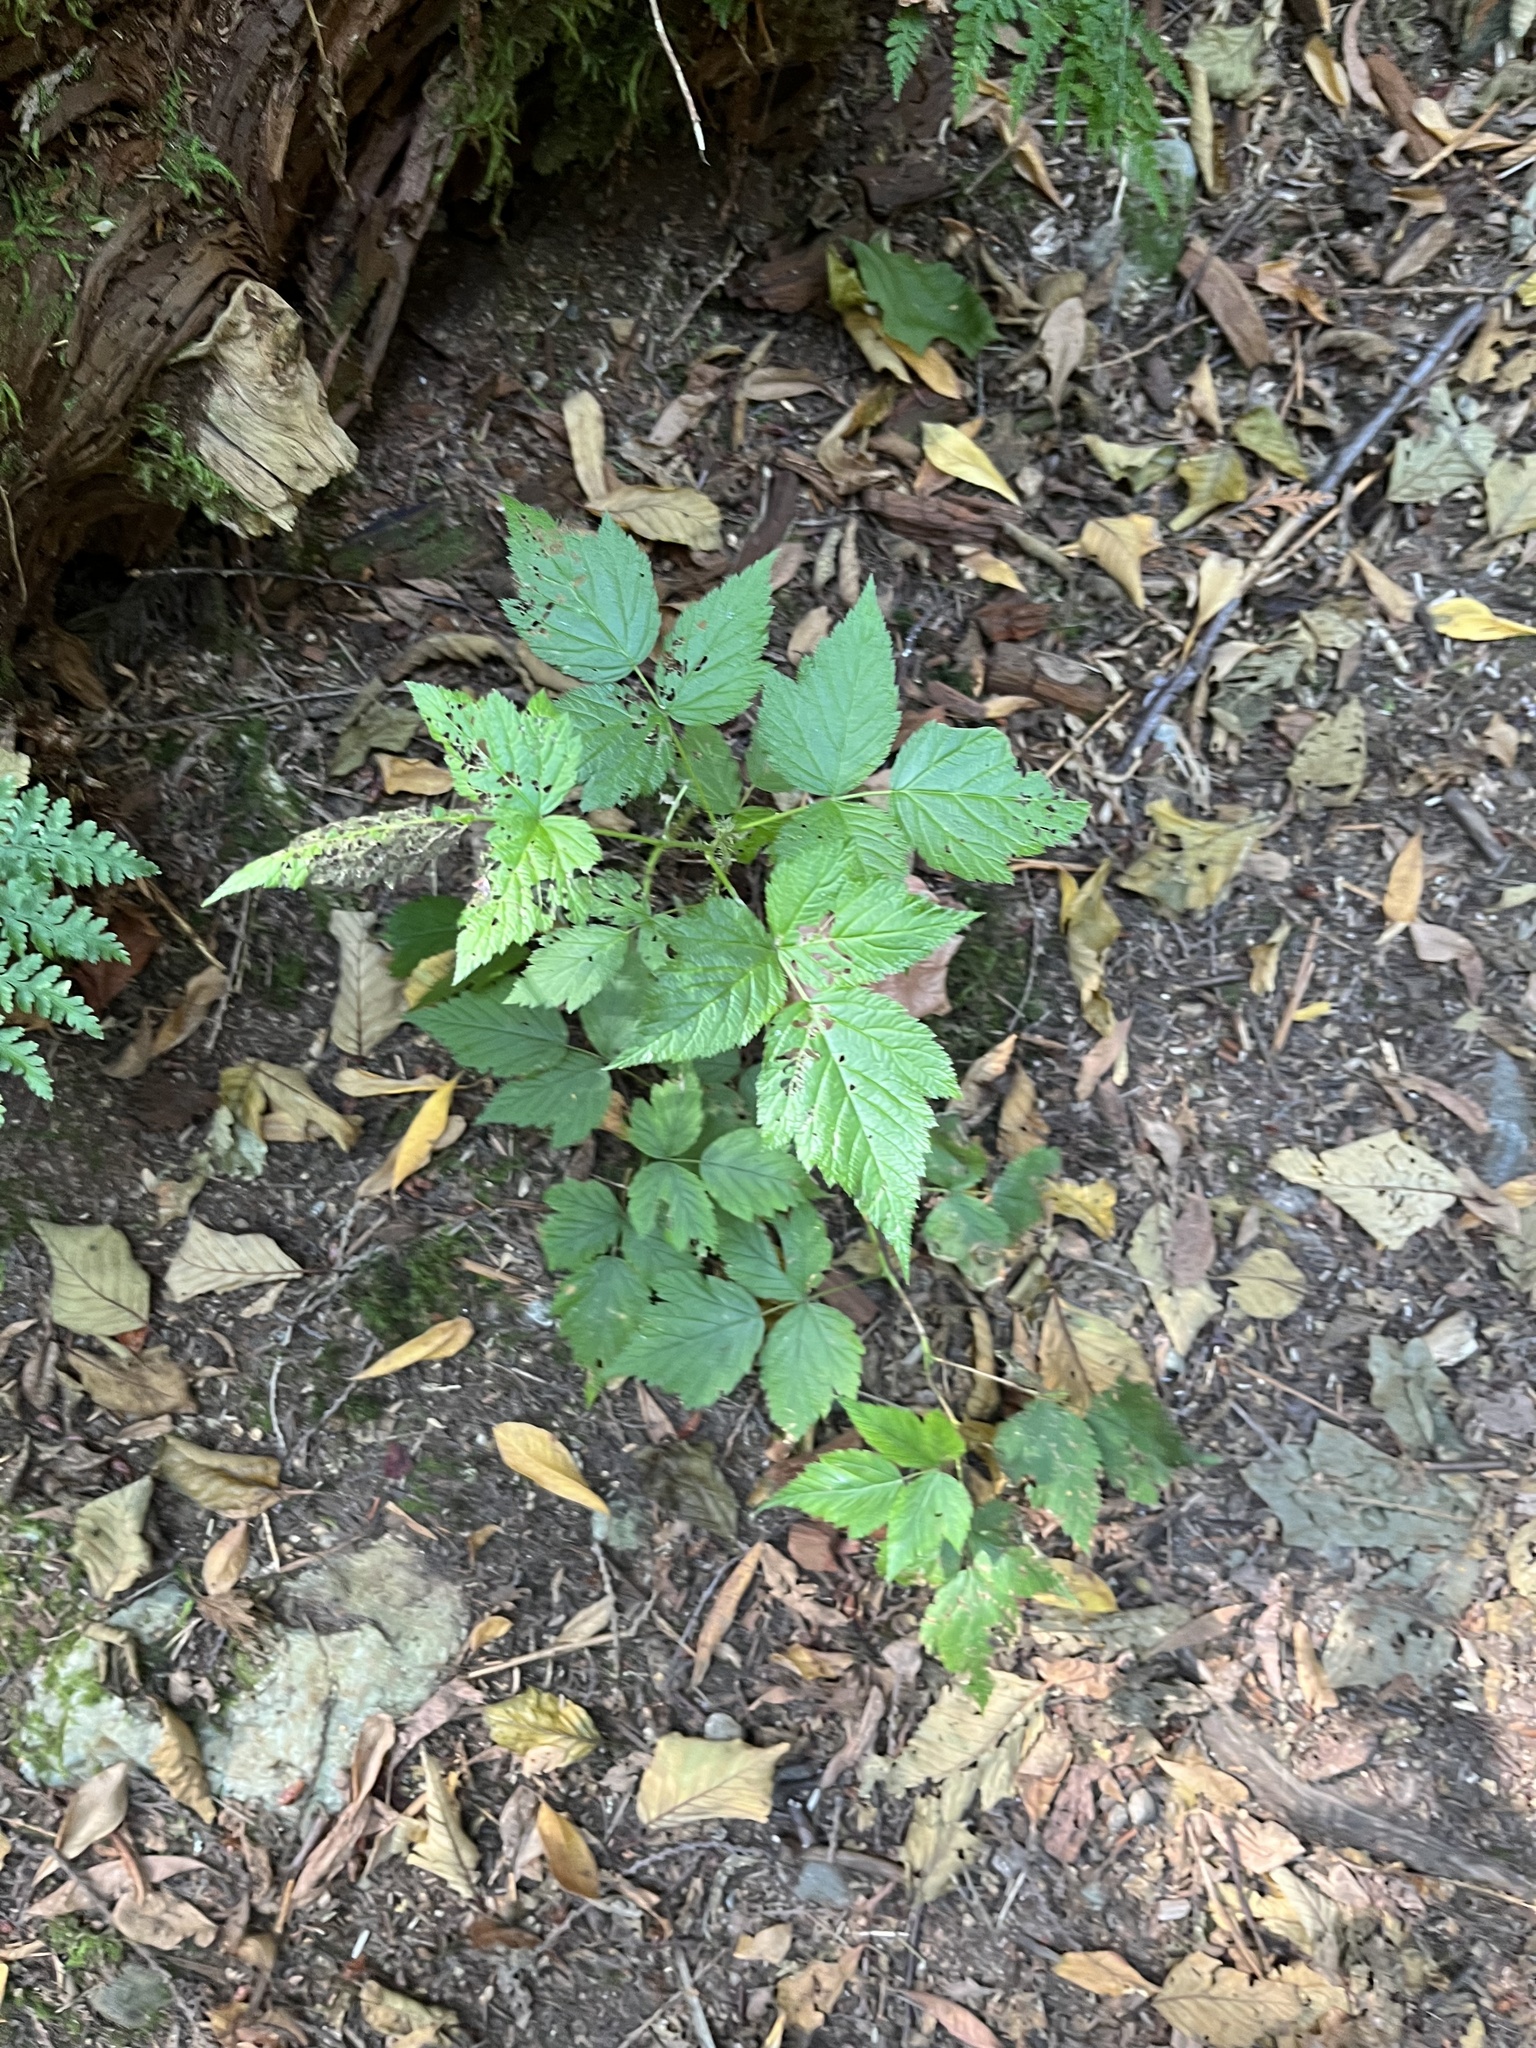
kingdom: Plantae
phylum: Tracheophyta
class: Magnoliopsida
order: Rosales
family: Rosaceae
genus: Rubus
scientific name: Rubus spectabilis
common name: Salmonberry
